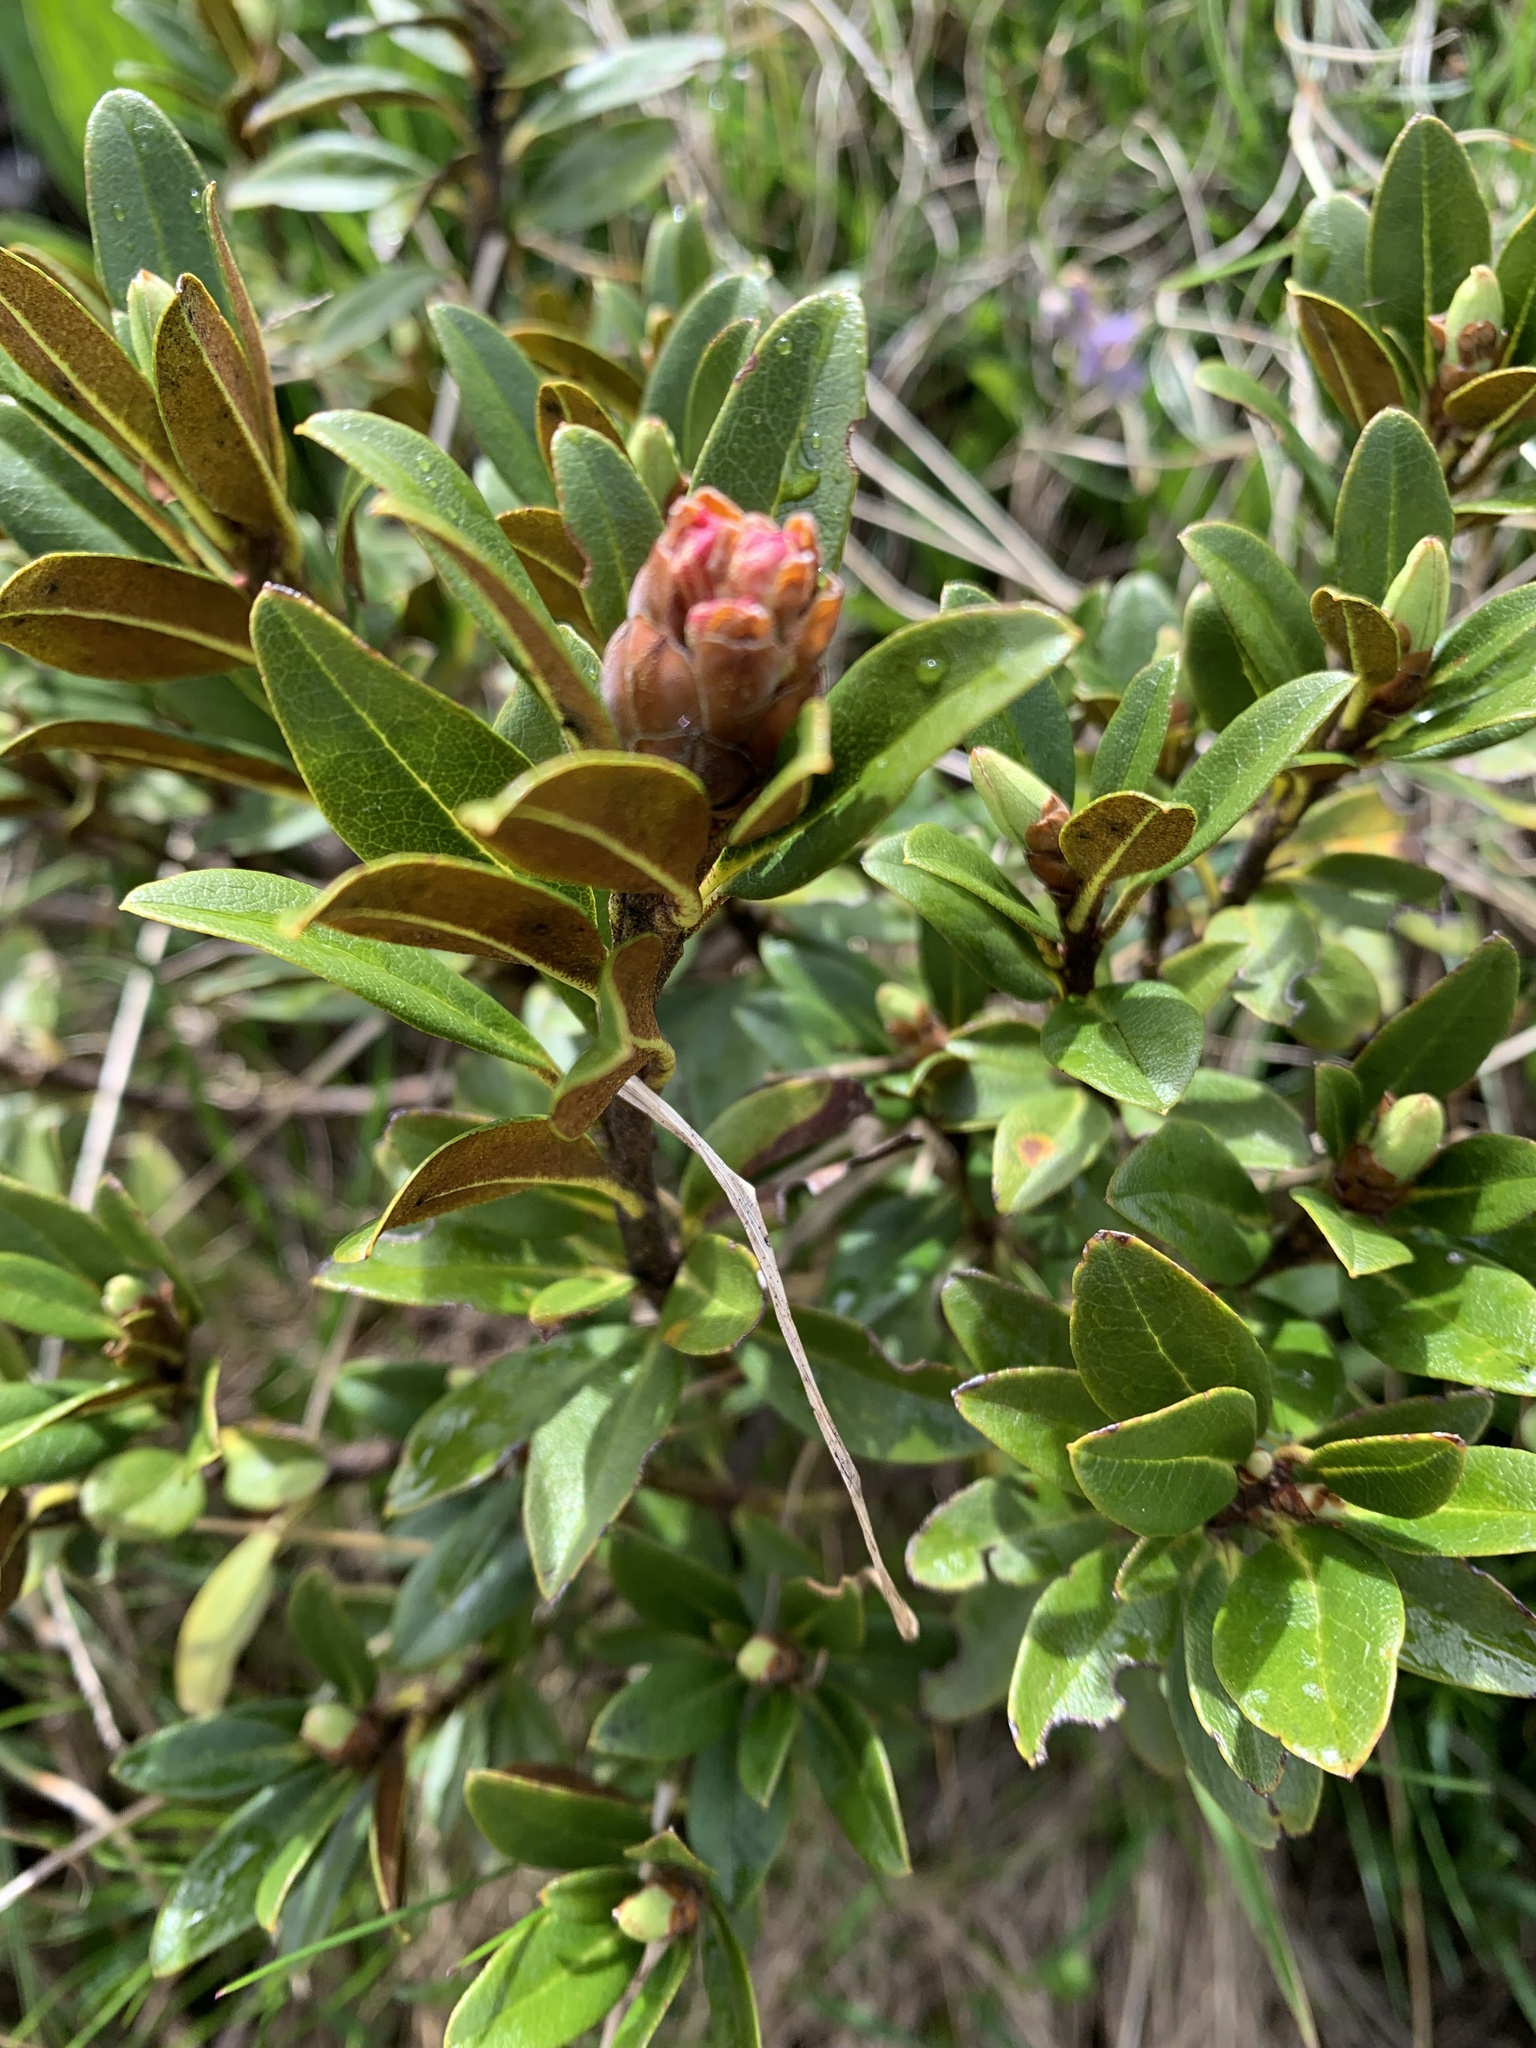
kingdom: Plantae
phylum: Tracheophyta
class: Magnoliopsida
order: Ericales
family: Ericaceae
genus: Rhododendron
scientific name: Rhododendron ferrugineum
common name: Alpenrose
